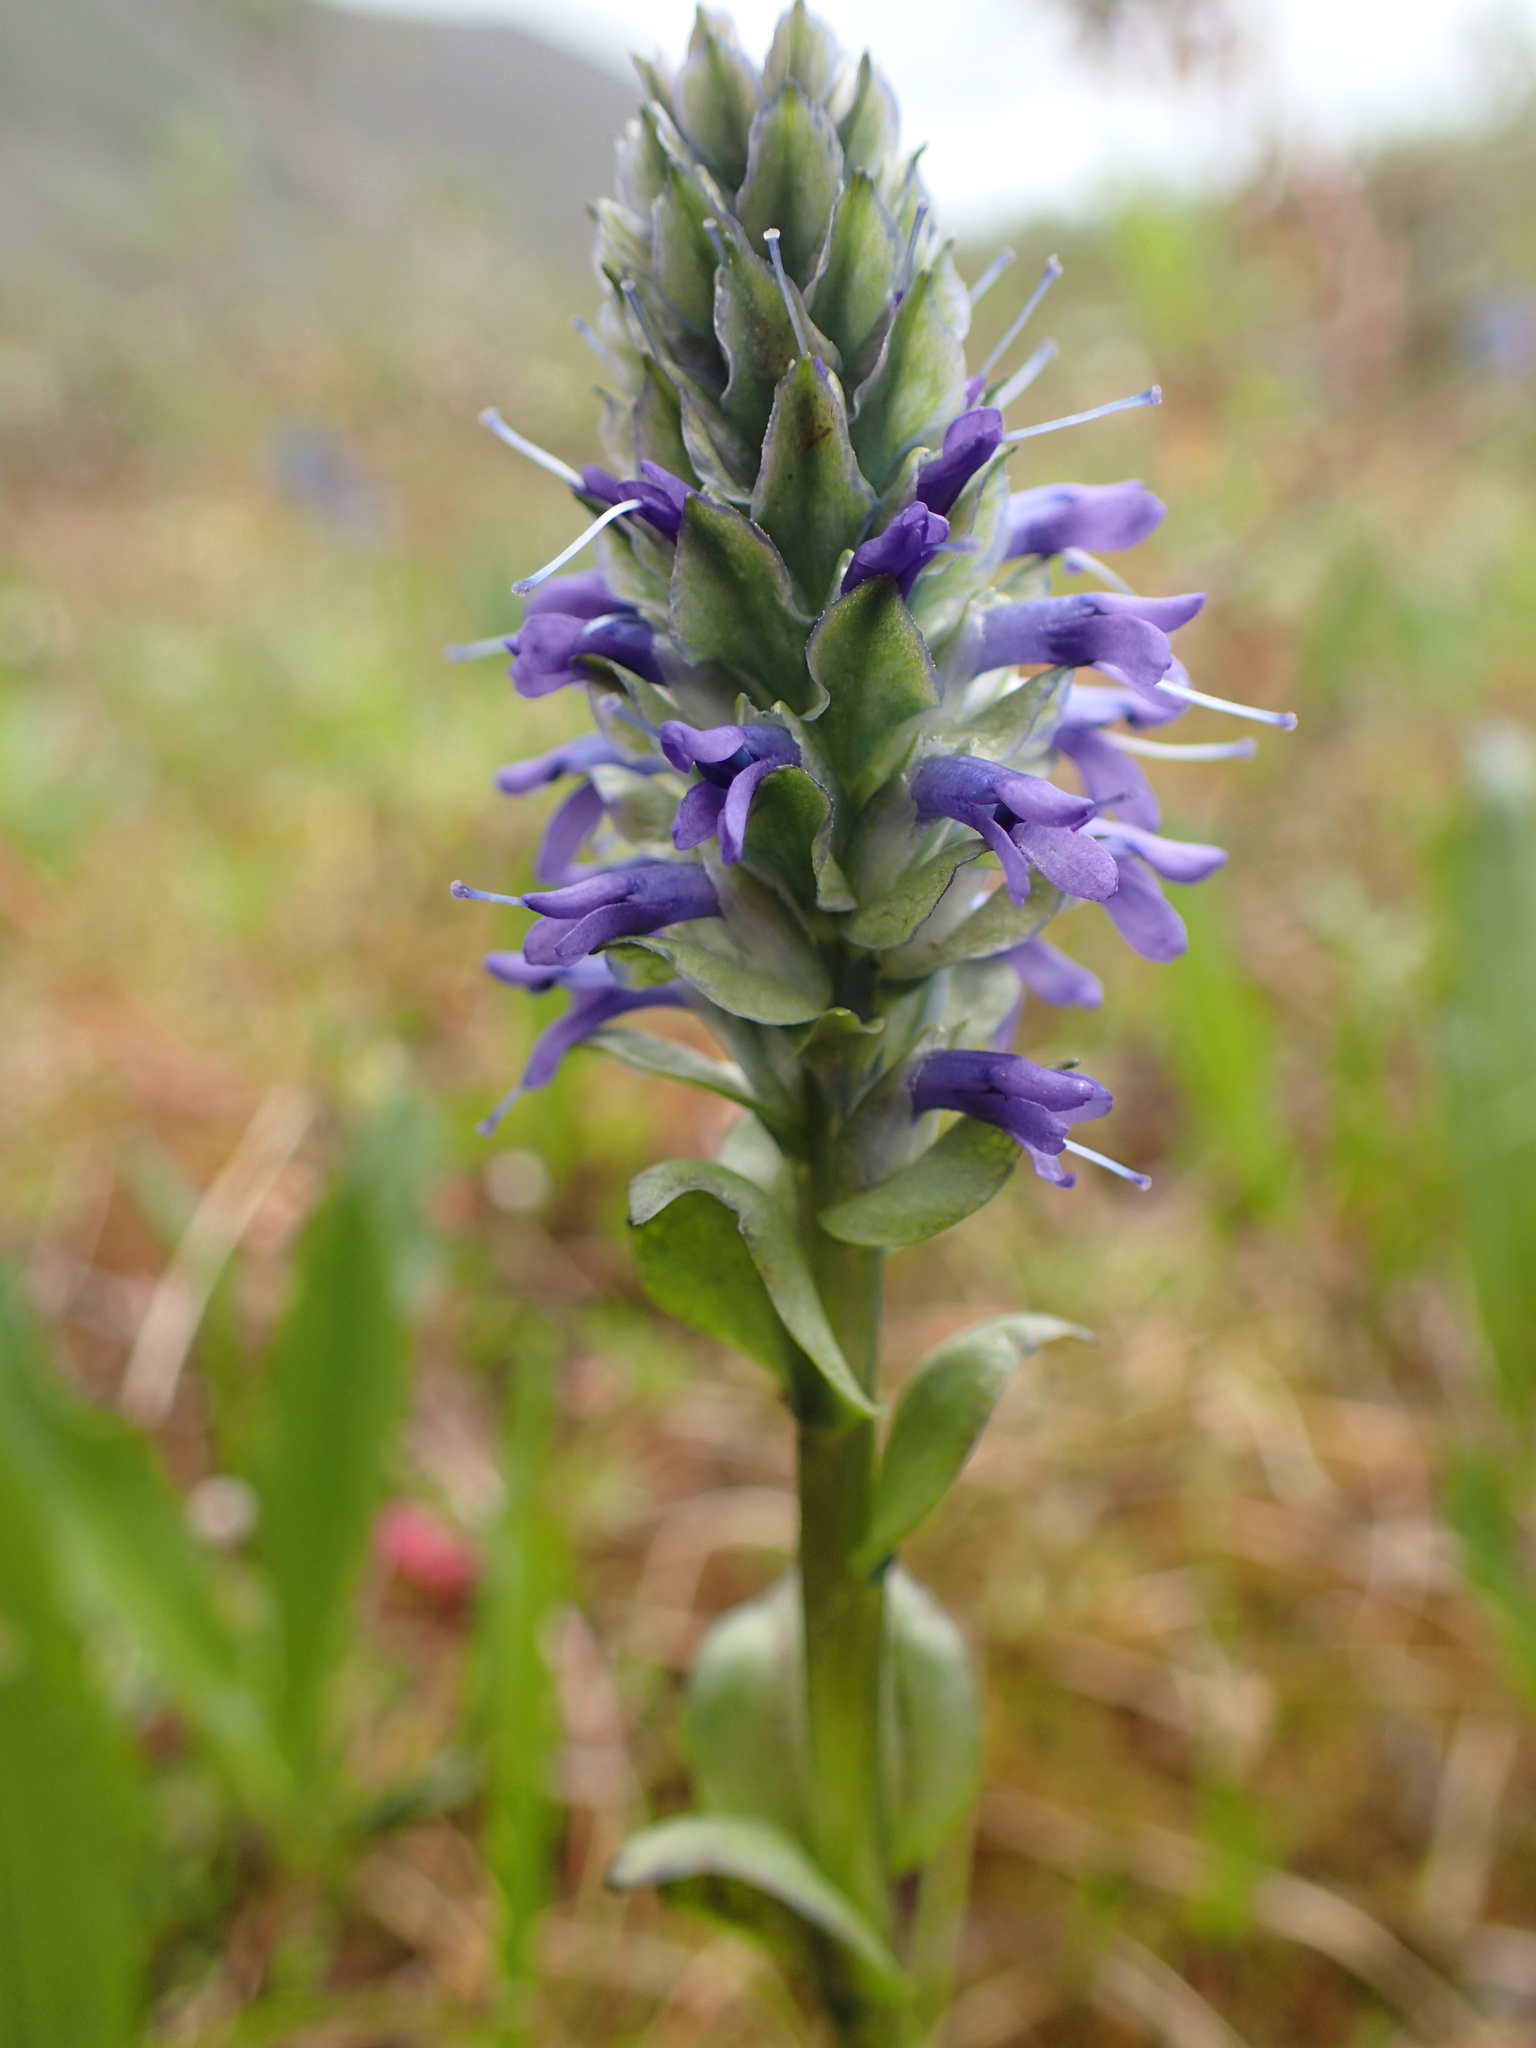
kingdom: Plantae
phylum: Tracheophyta
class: Magnoliopsida
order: Lamiales
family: Plantaginaceae
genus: Lagotis
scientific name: Lagotis glauca
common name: Glaucous weaselsnout
